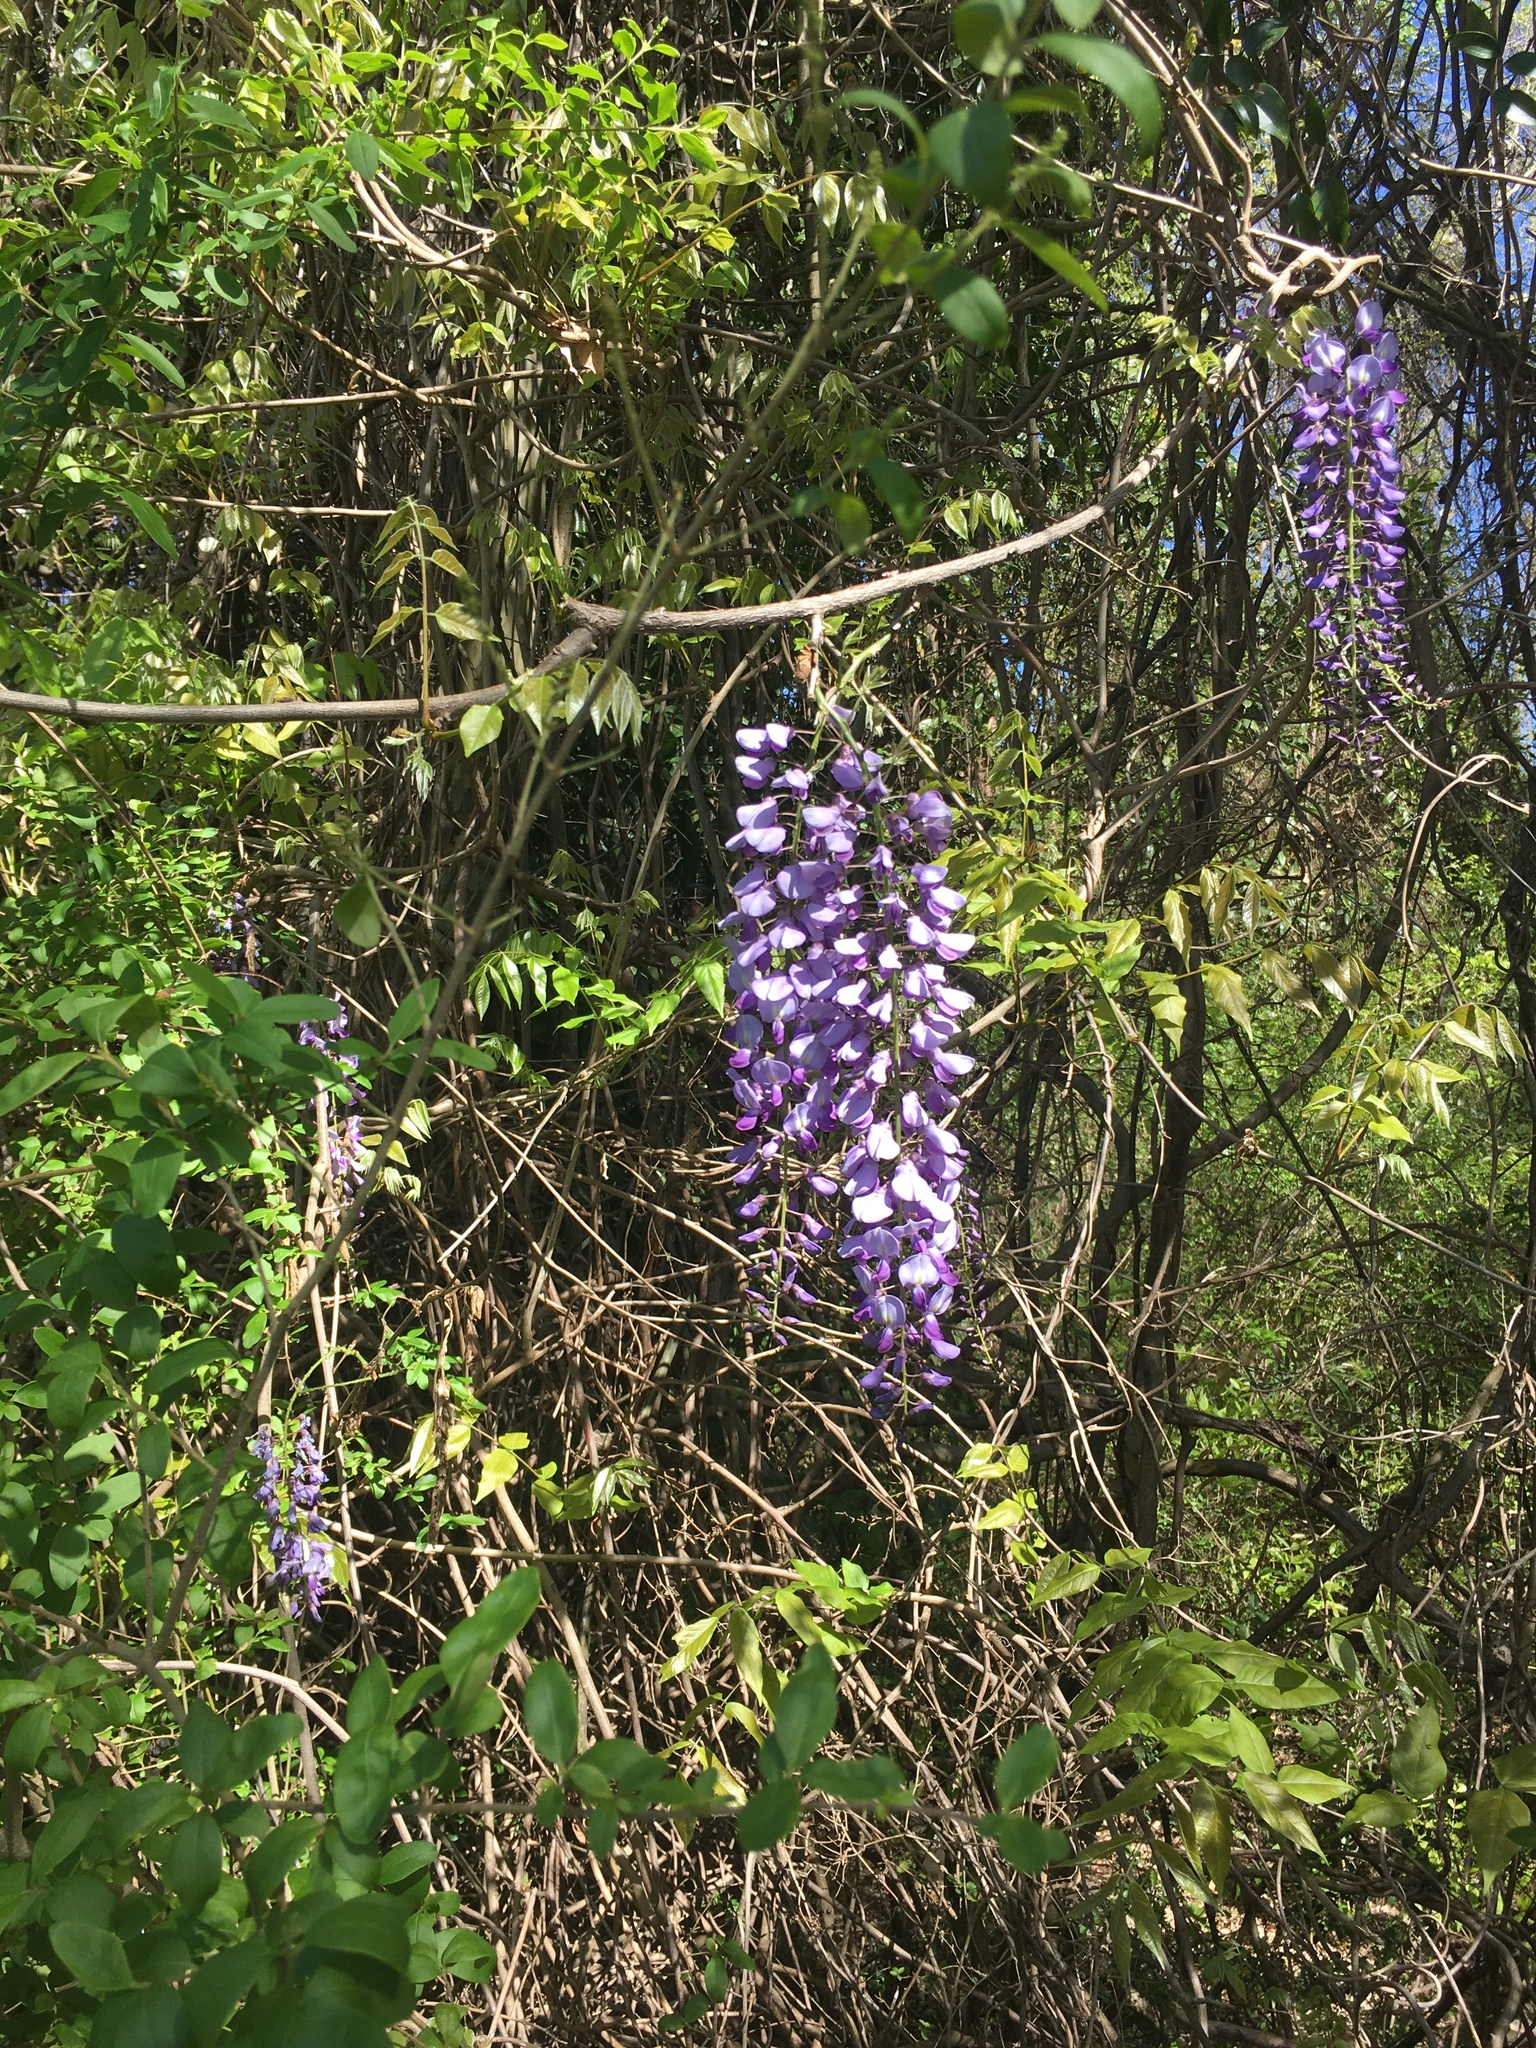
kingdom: Plantae
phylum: Tracheophyta
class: Magnoliopsida
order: Fabales
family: Fabaceae
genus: Wisteria
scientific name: Wisteria sinensis
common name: Chinese wisteria
